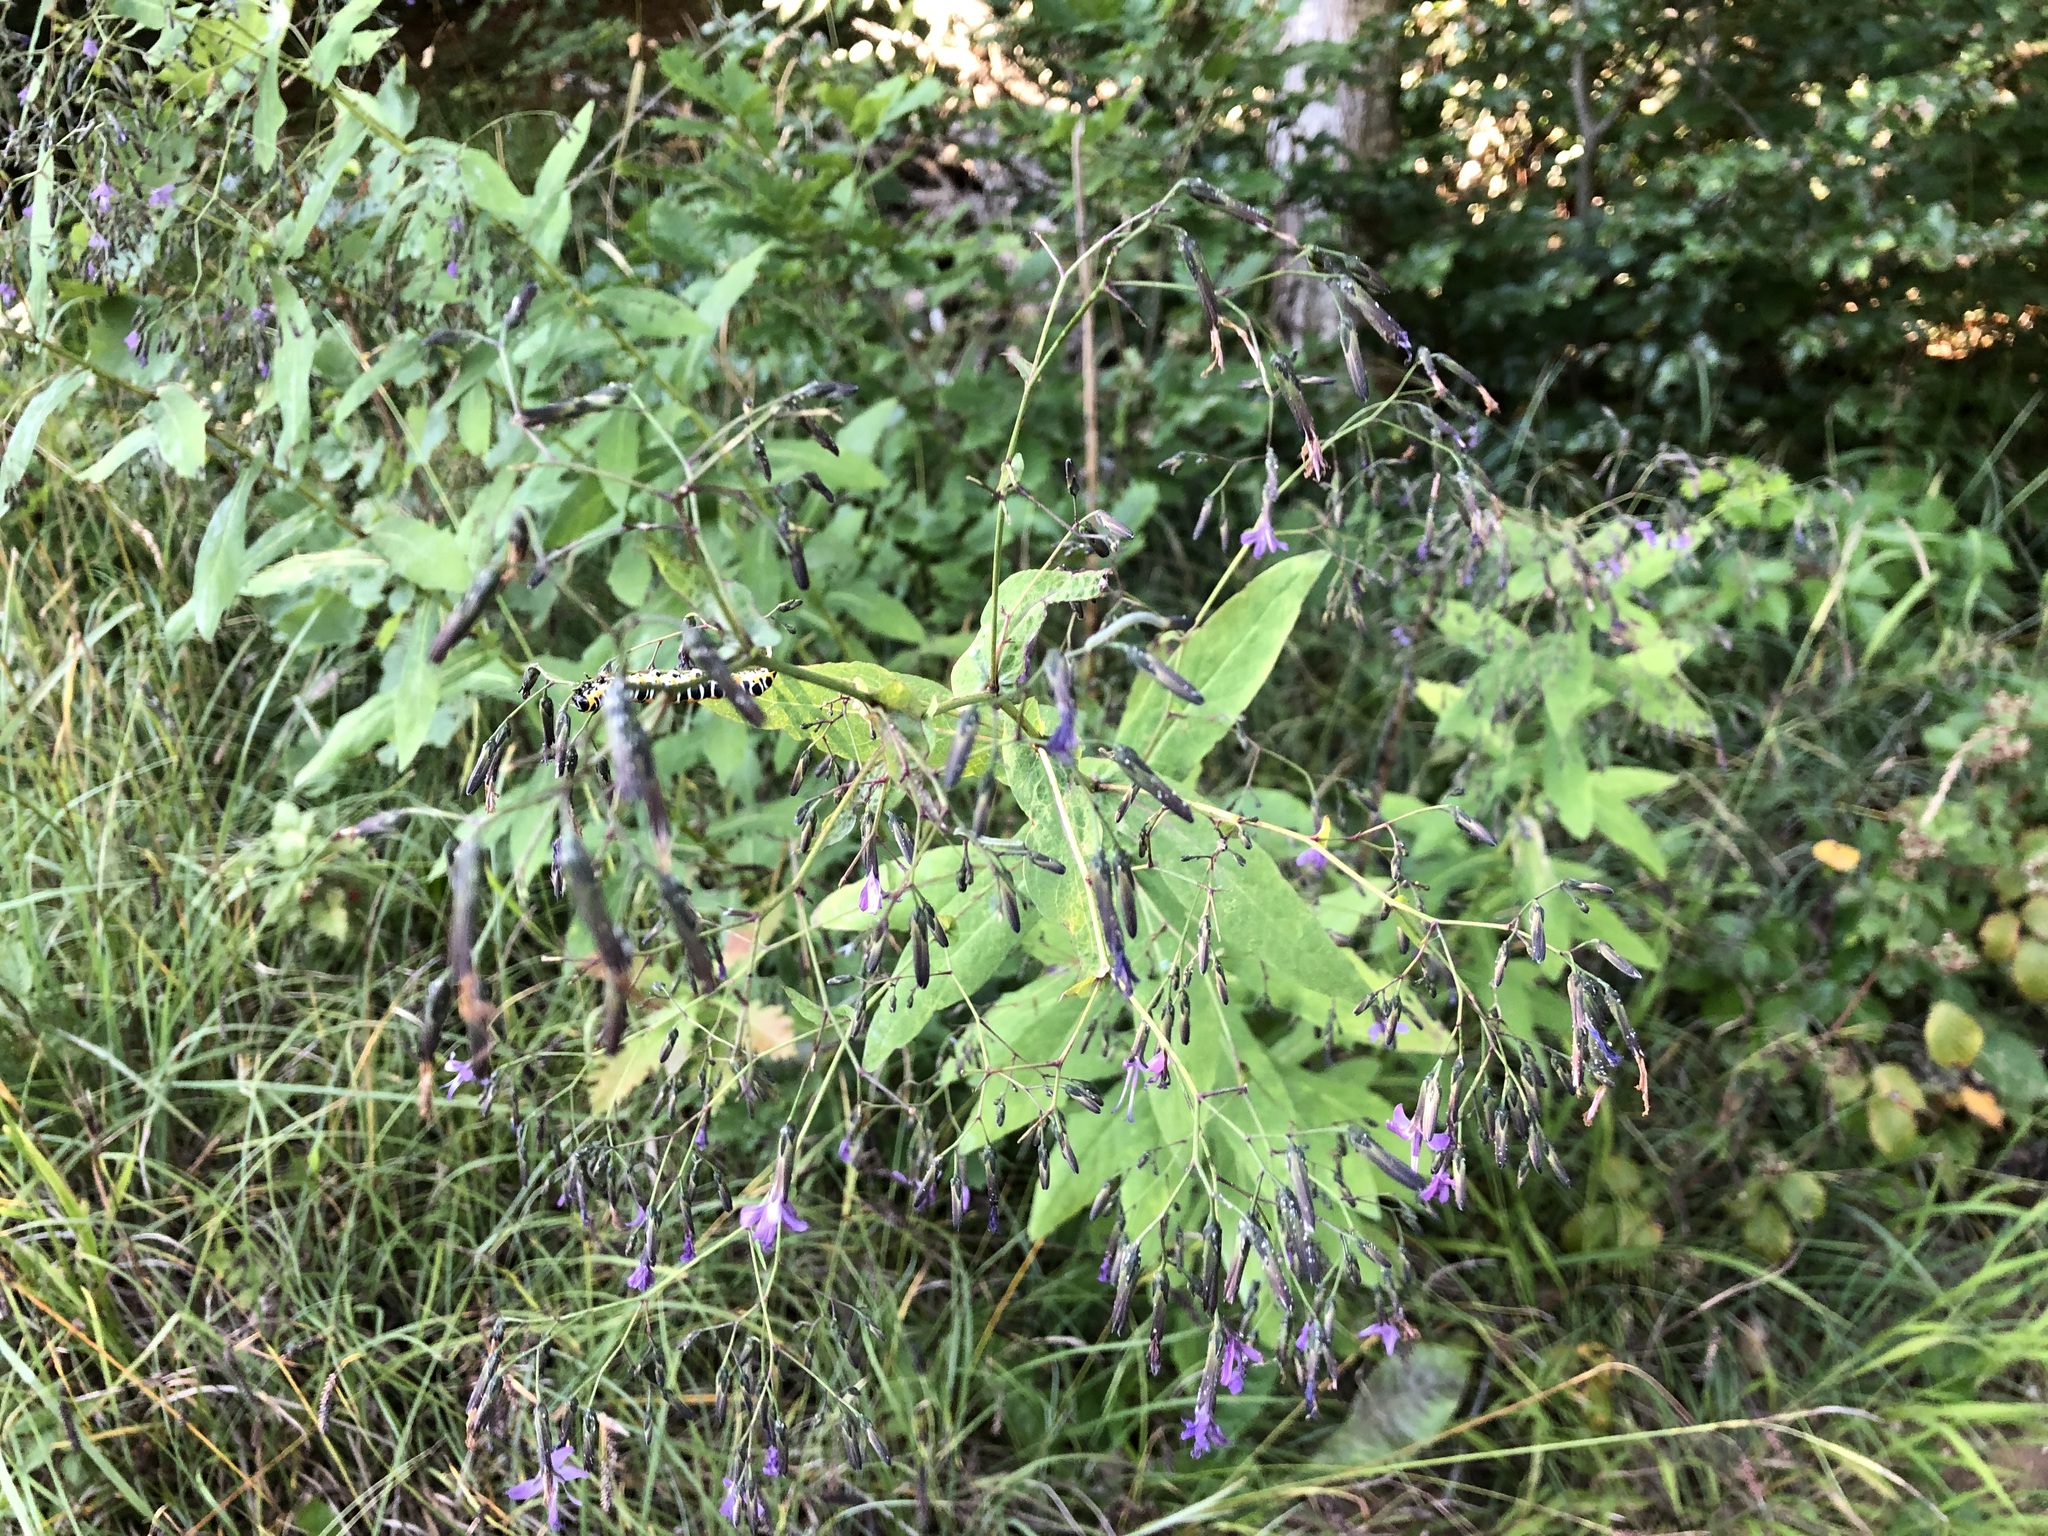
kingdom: Plantae
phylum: Tracheophyta
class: Magnoliopsida
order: Asterales
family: Asteraceae
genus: Prenanthes
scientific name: Prenanthes purpurea
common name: Purple lettuce
